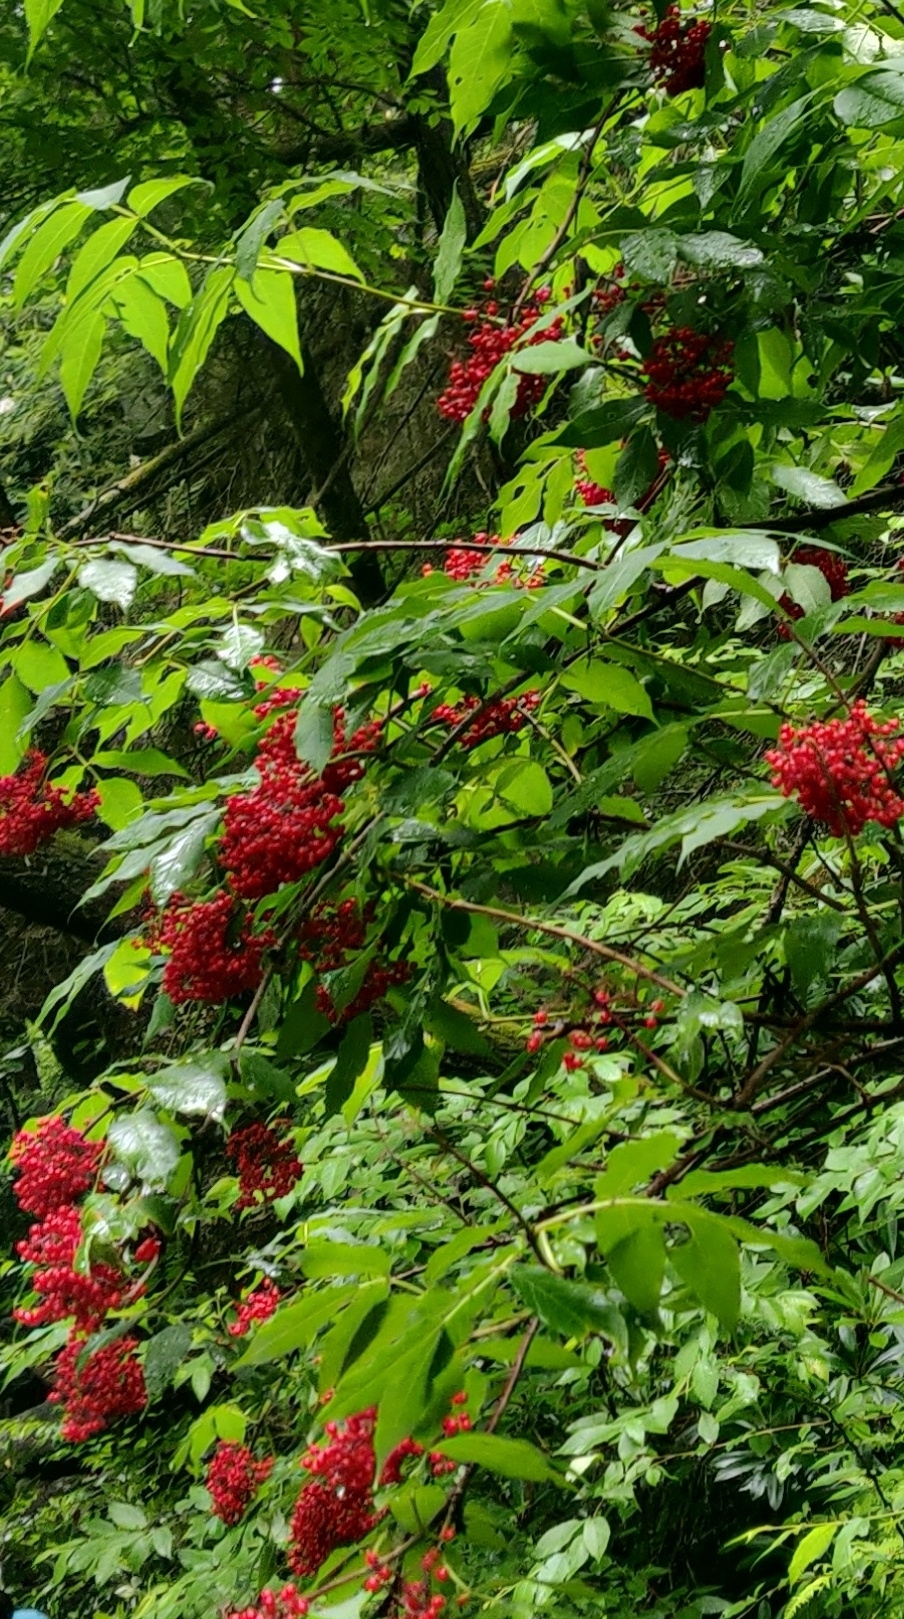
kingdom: Plantae
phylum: Tracheophyta
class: Magnoliopsida
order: Dipsacales
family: Viburnaceae
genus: Sambucus
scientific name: Sambucus racemosa
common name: Red-berried elder
